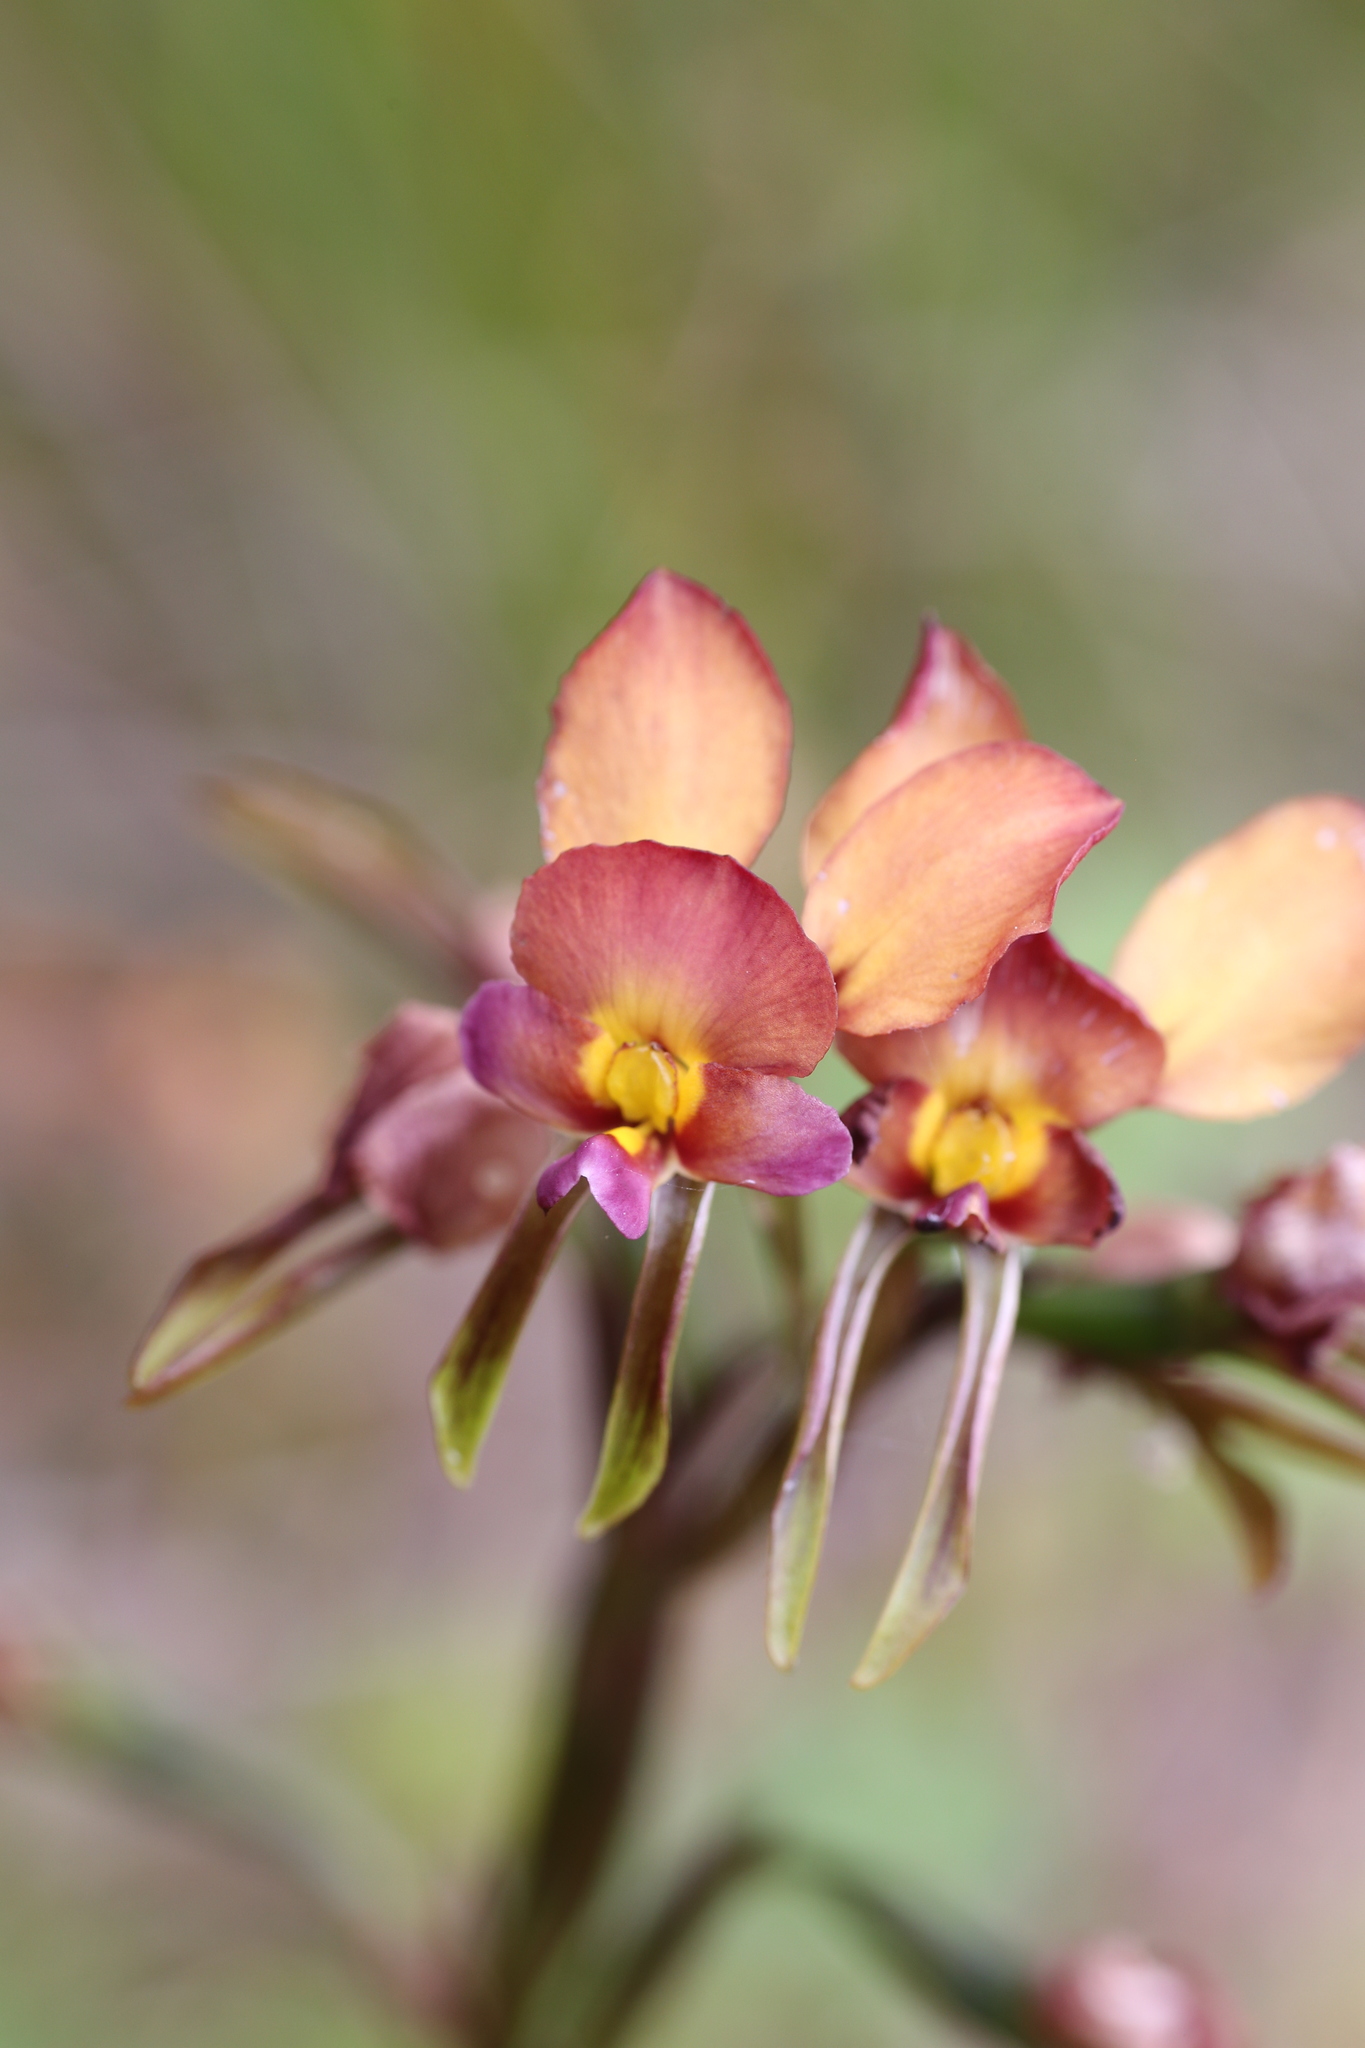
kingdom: Plantae
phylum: Tracheophyta
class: Liliopsida
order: Asparagales
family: Orchidaceae
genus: Diuris
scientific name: Diuris longifolia
